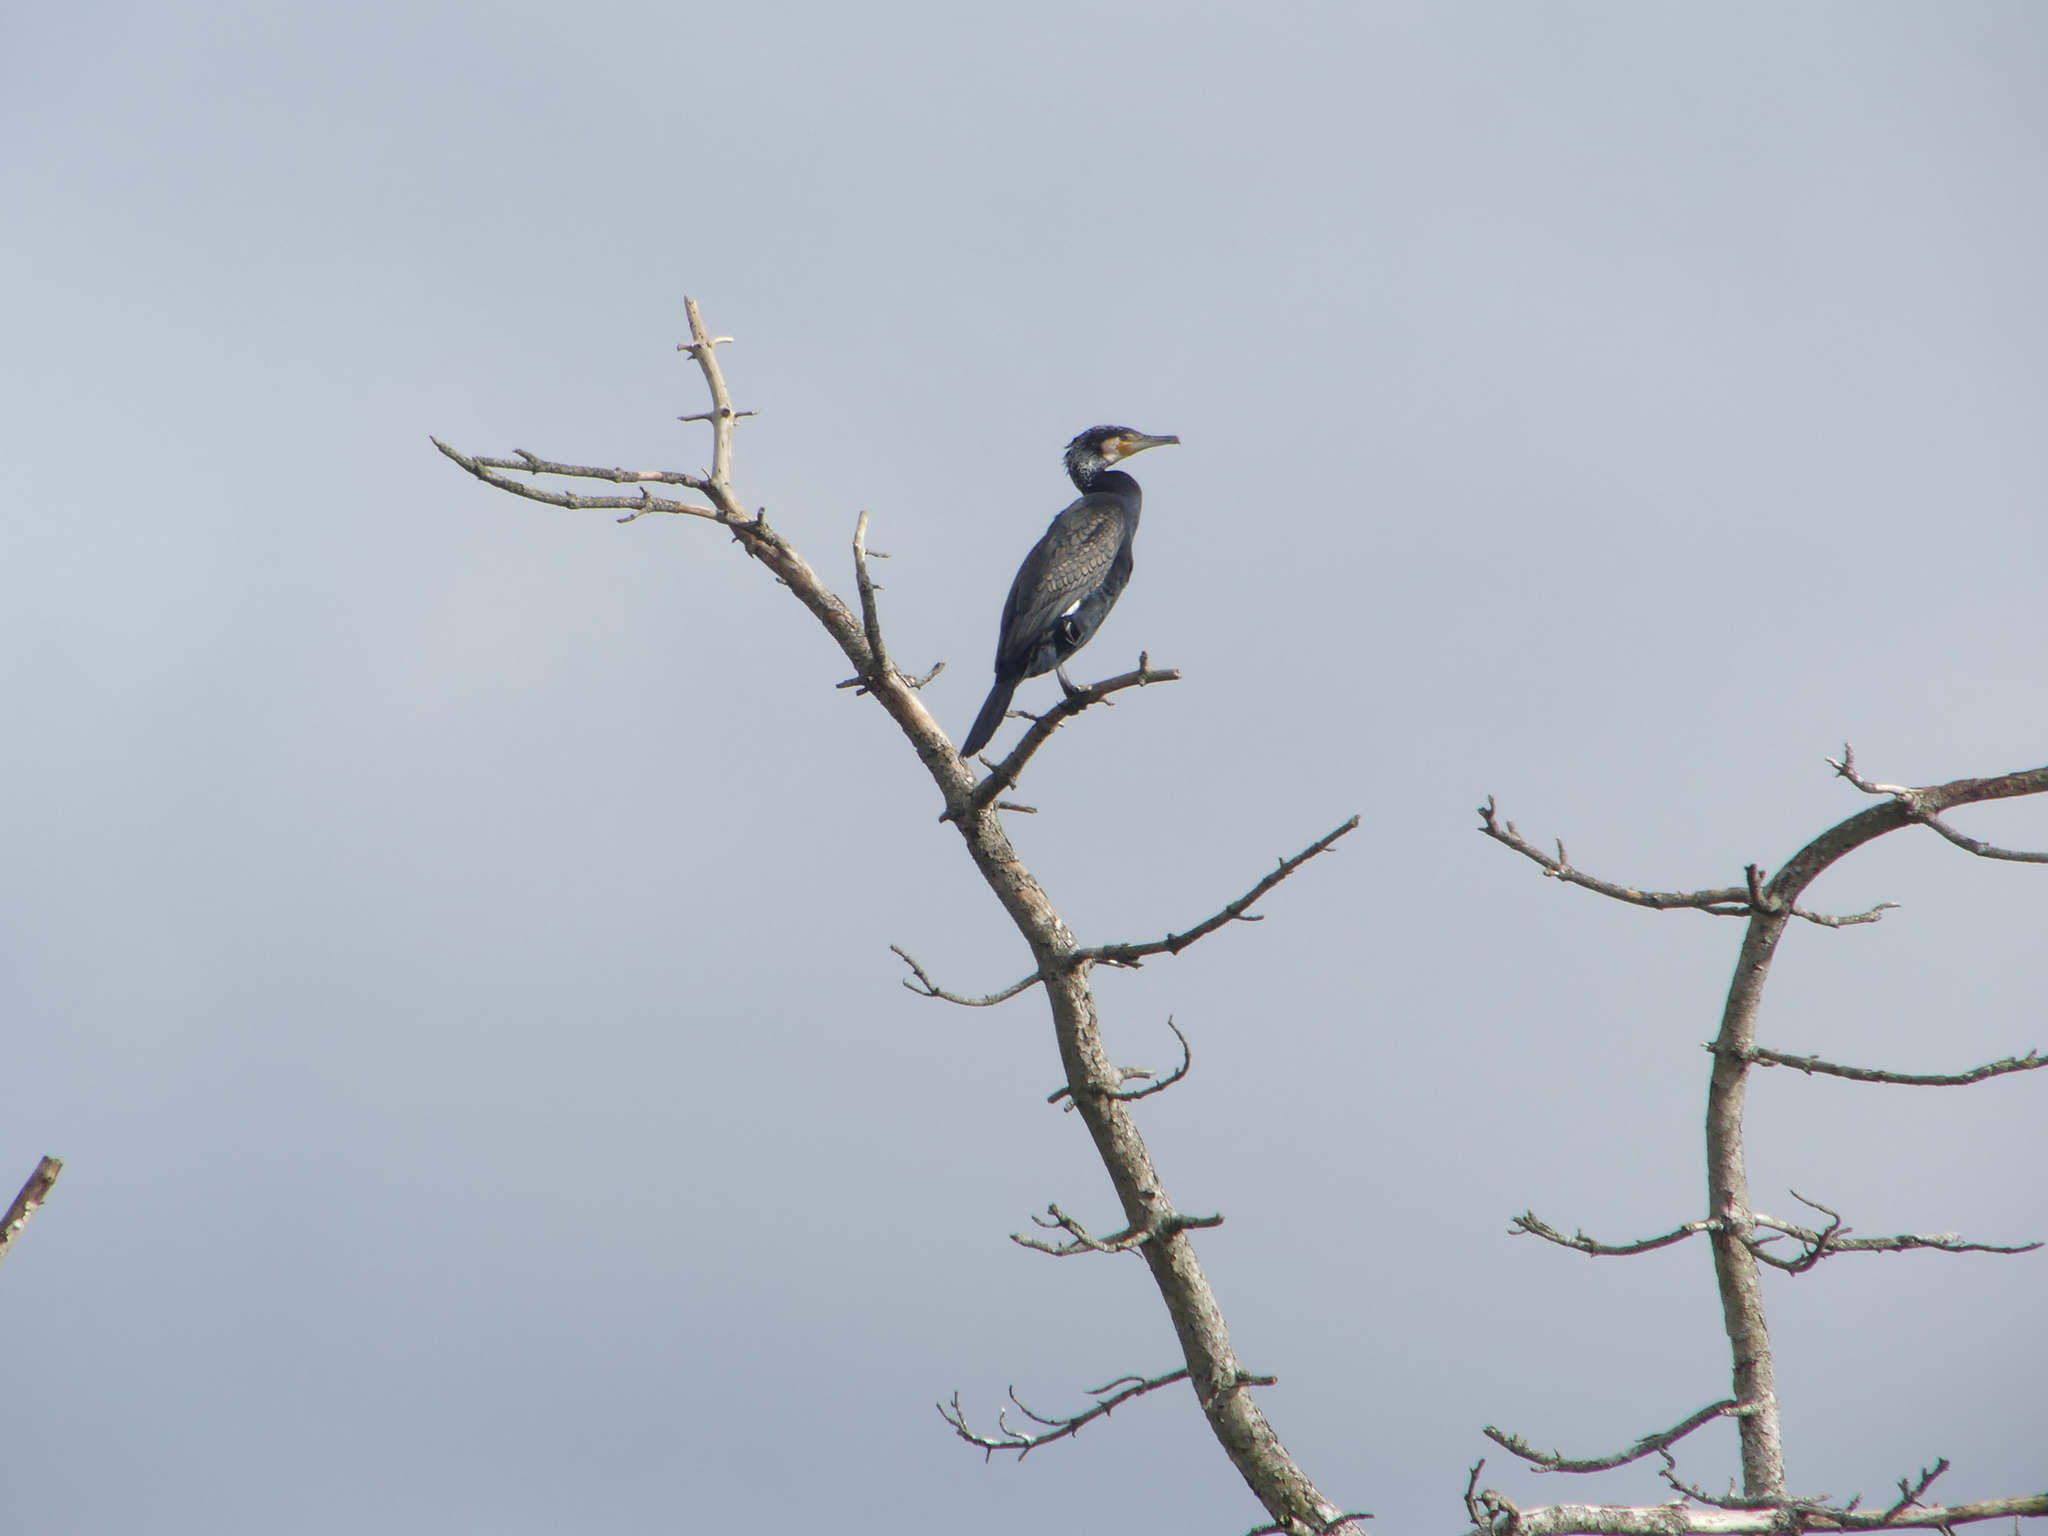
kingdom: Animalia
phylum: Chordata
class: Aves
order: Suliformes
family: Phalacrocoracidae
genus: Phalacrocorax
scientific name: Phalacrocorax carbo
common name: Great cormorant
